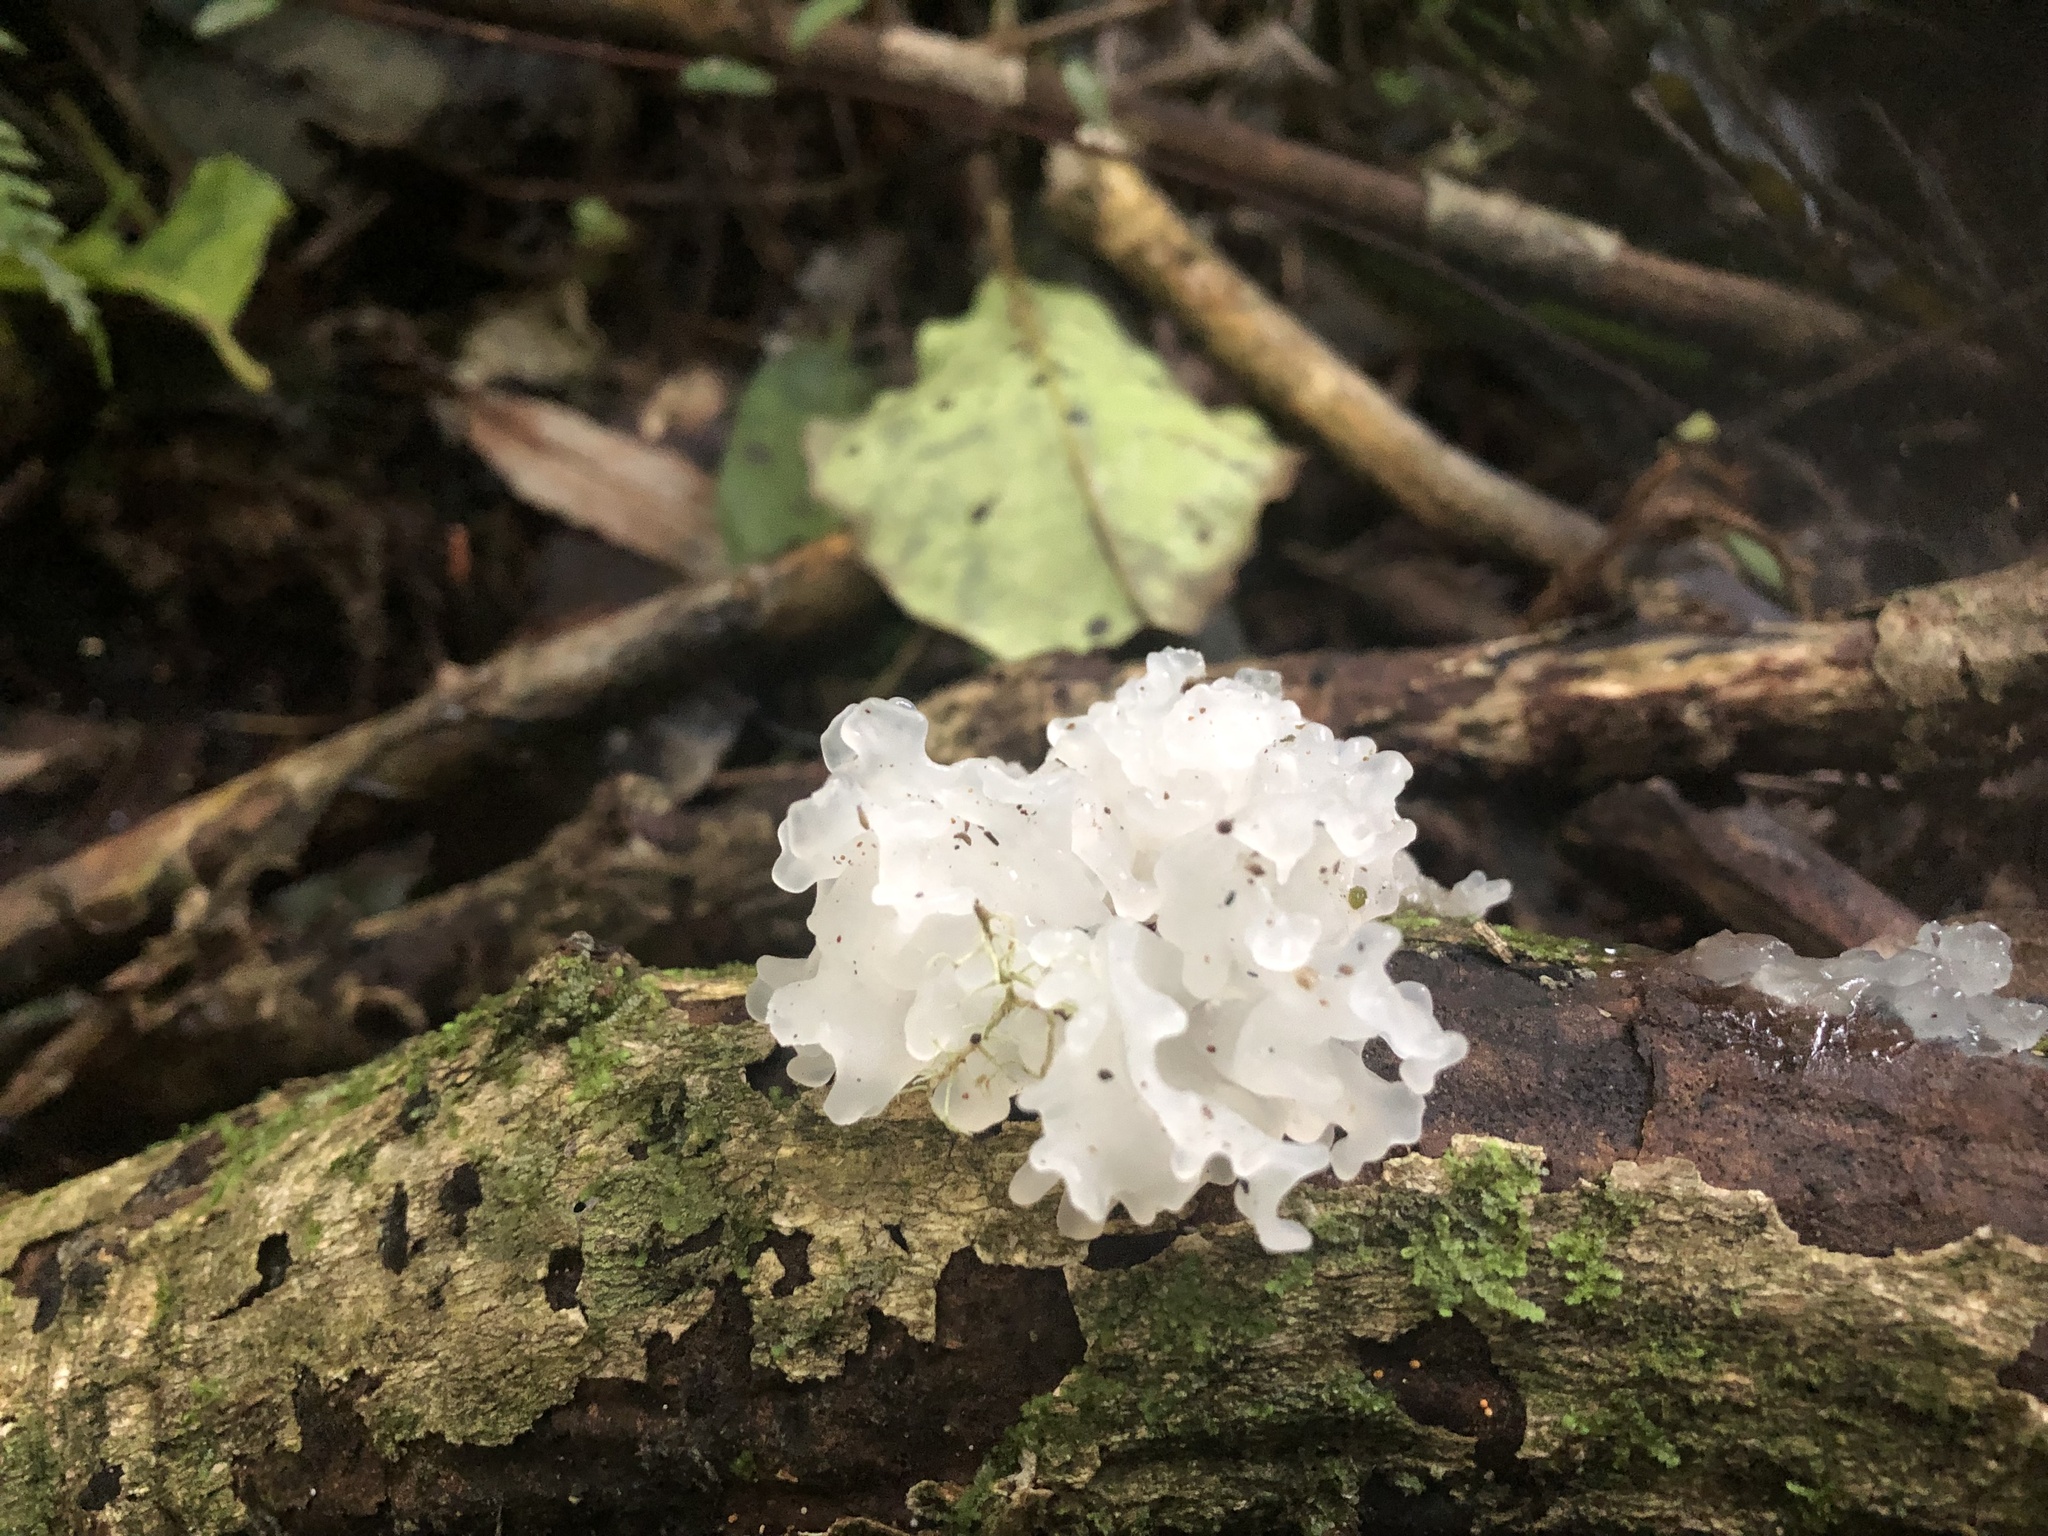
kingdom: Fungi
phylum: Basidiomycota
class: Tremellomycetes
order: Tremellales
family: Tremellaceae
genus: Tremella
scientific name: Tremella fuciformis
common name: Snow fungus
